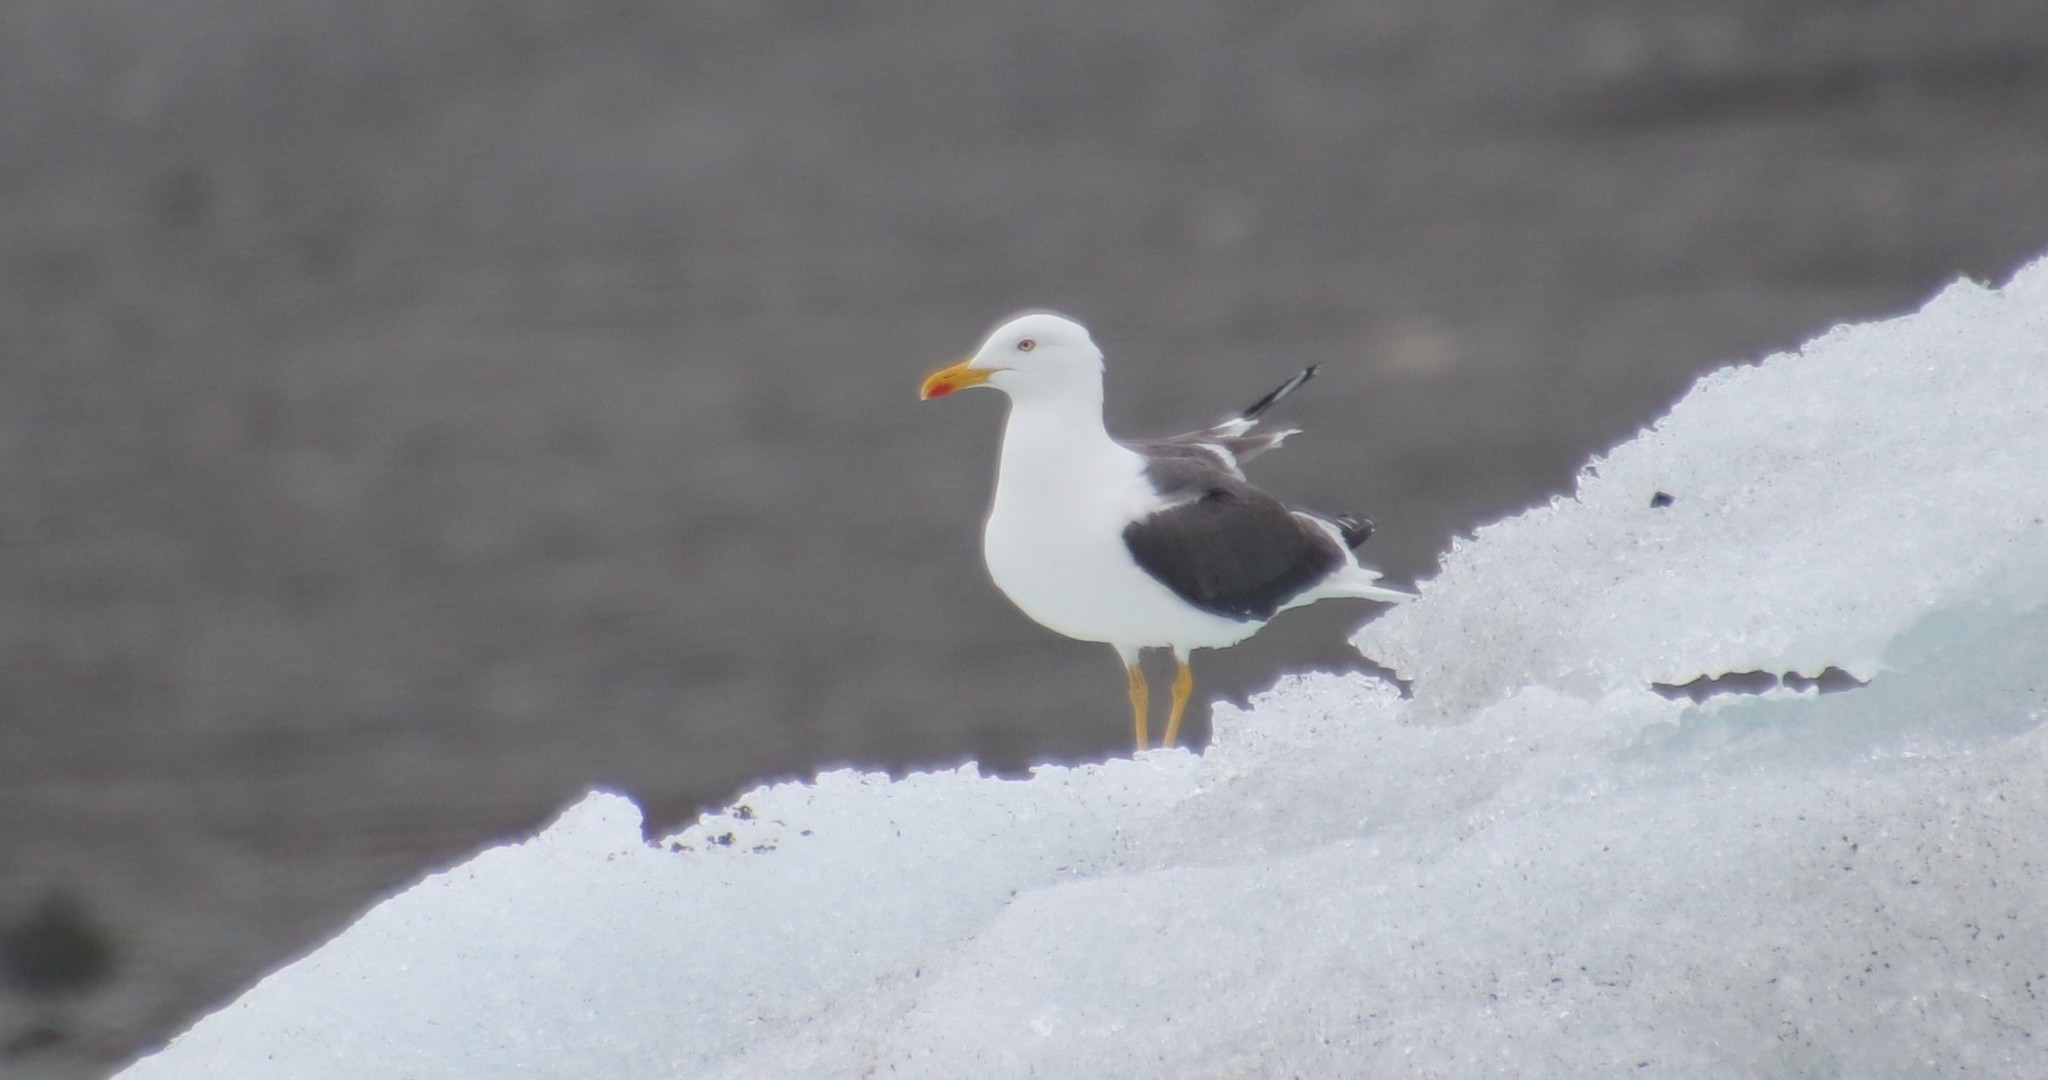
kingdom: Animalia
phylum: Chordata
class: Aves
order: Charadriiformes
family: Laridae
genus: Larus
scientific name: Larus fuscus
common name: Lesser black-backed gull
